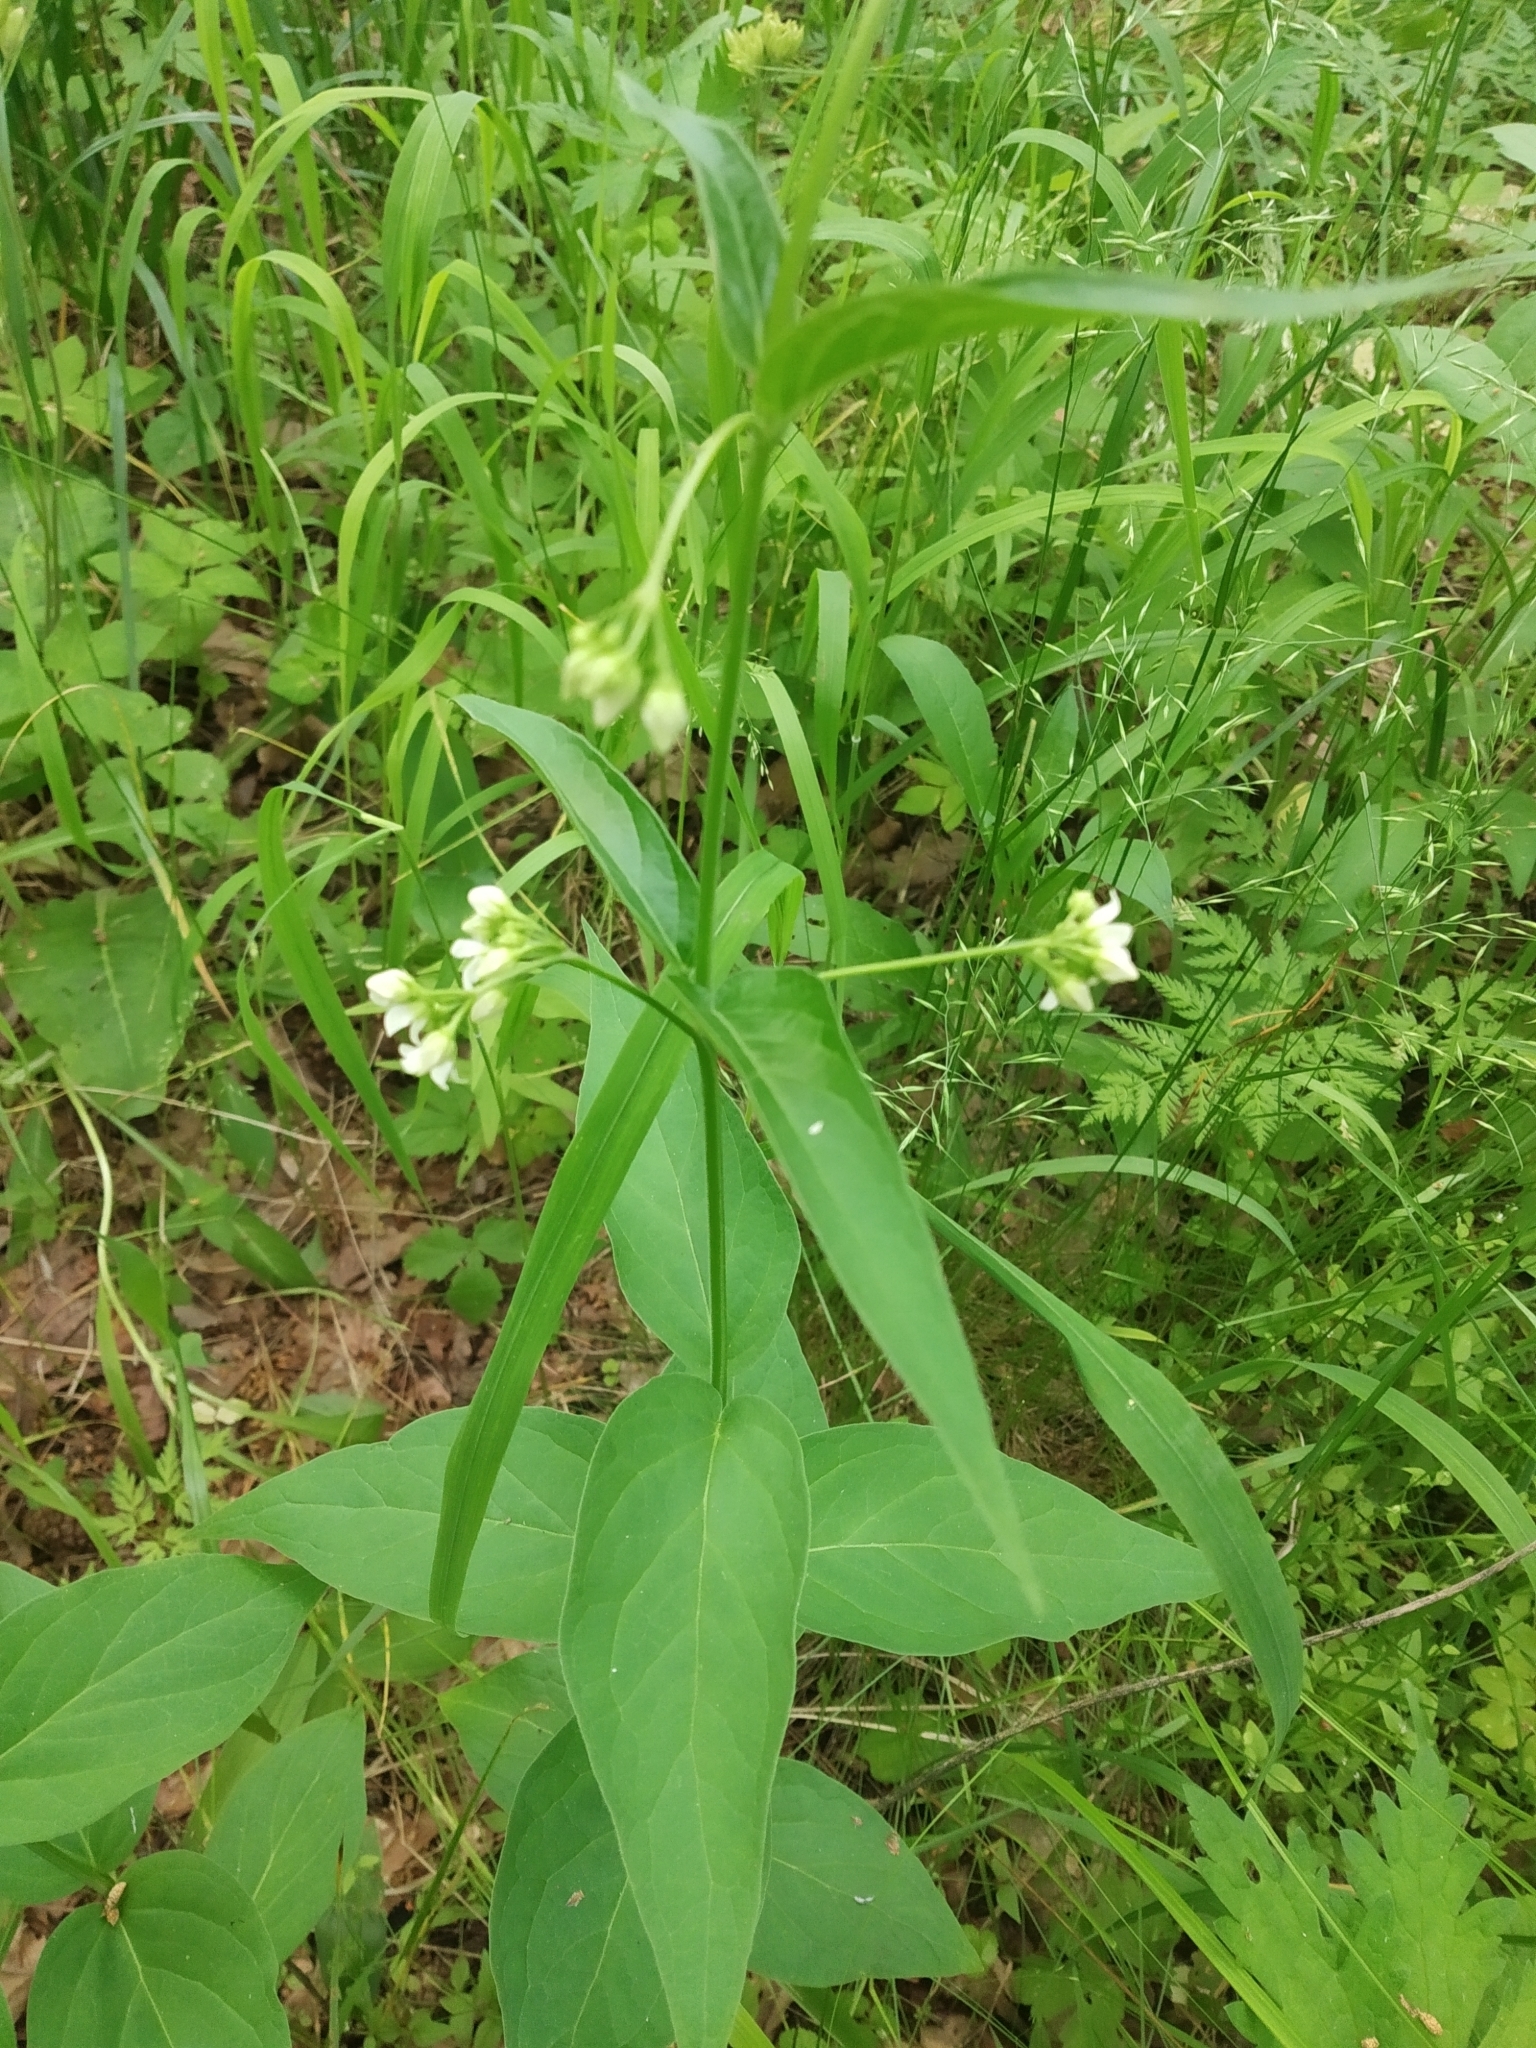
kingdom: Plantae
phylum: Tracheophyta
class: Magnoliopsida
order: Gentianales
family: Apocynaceae
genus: Vincetoxicum
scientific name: Vincetoxicum hirundinaria
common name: White swallowwort
